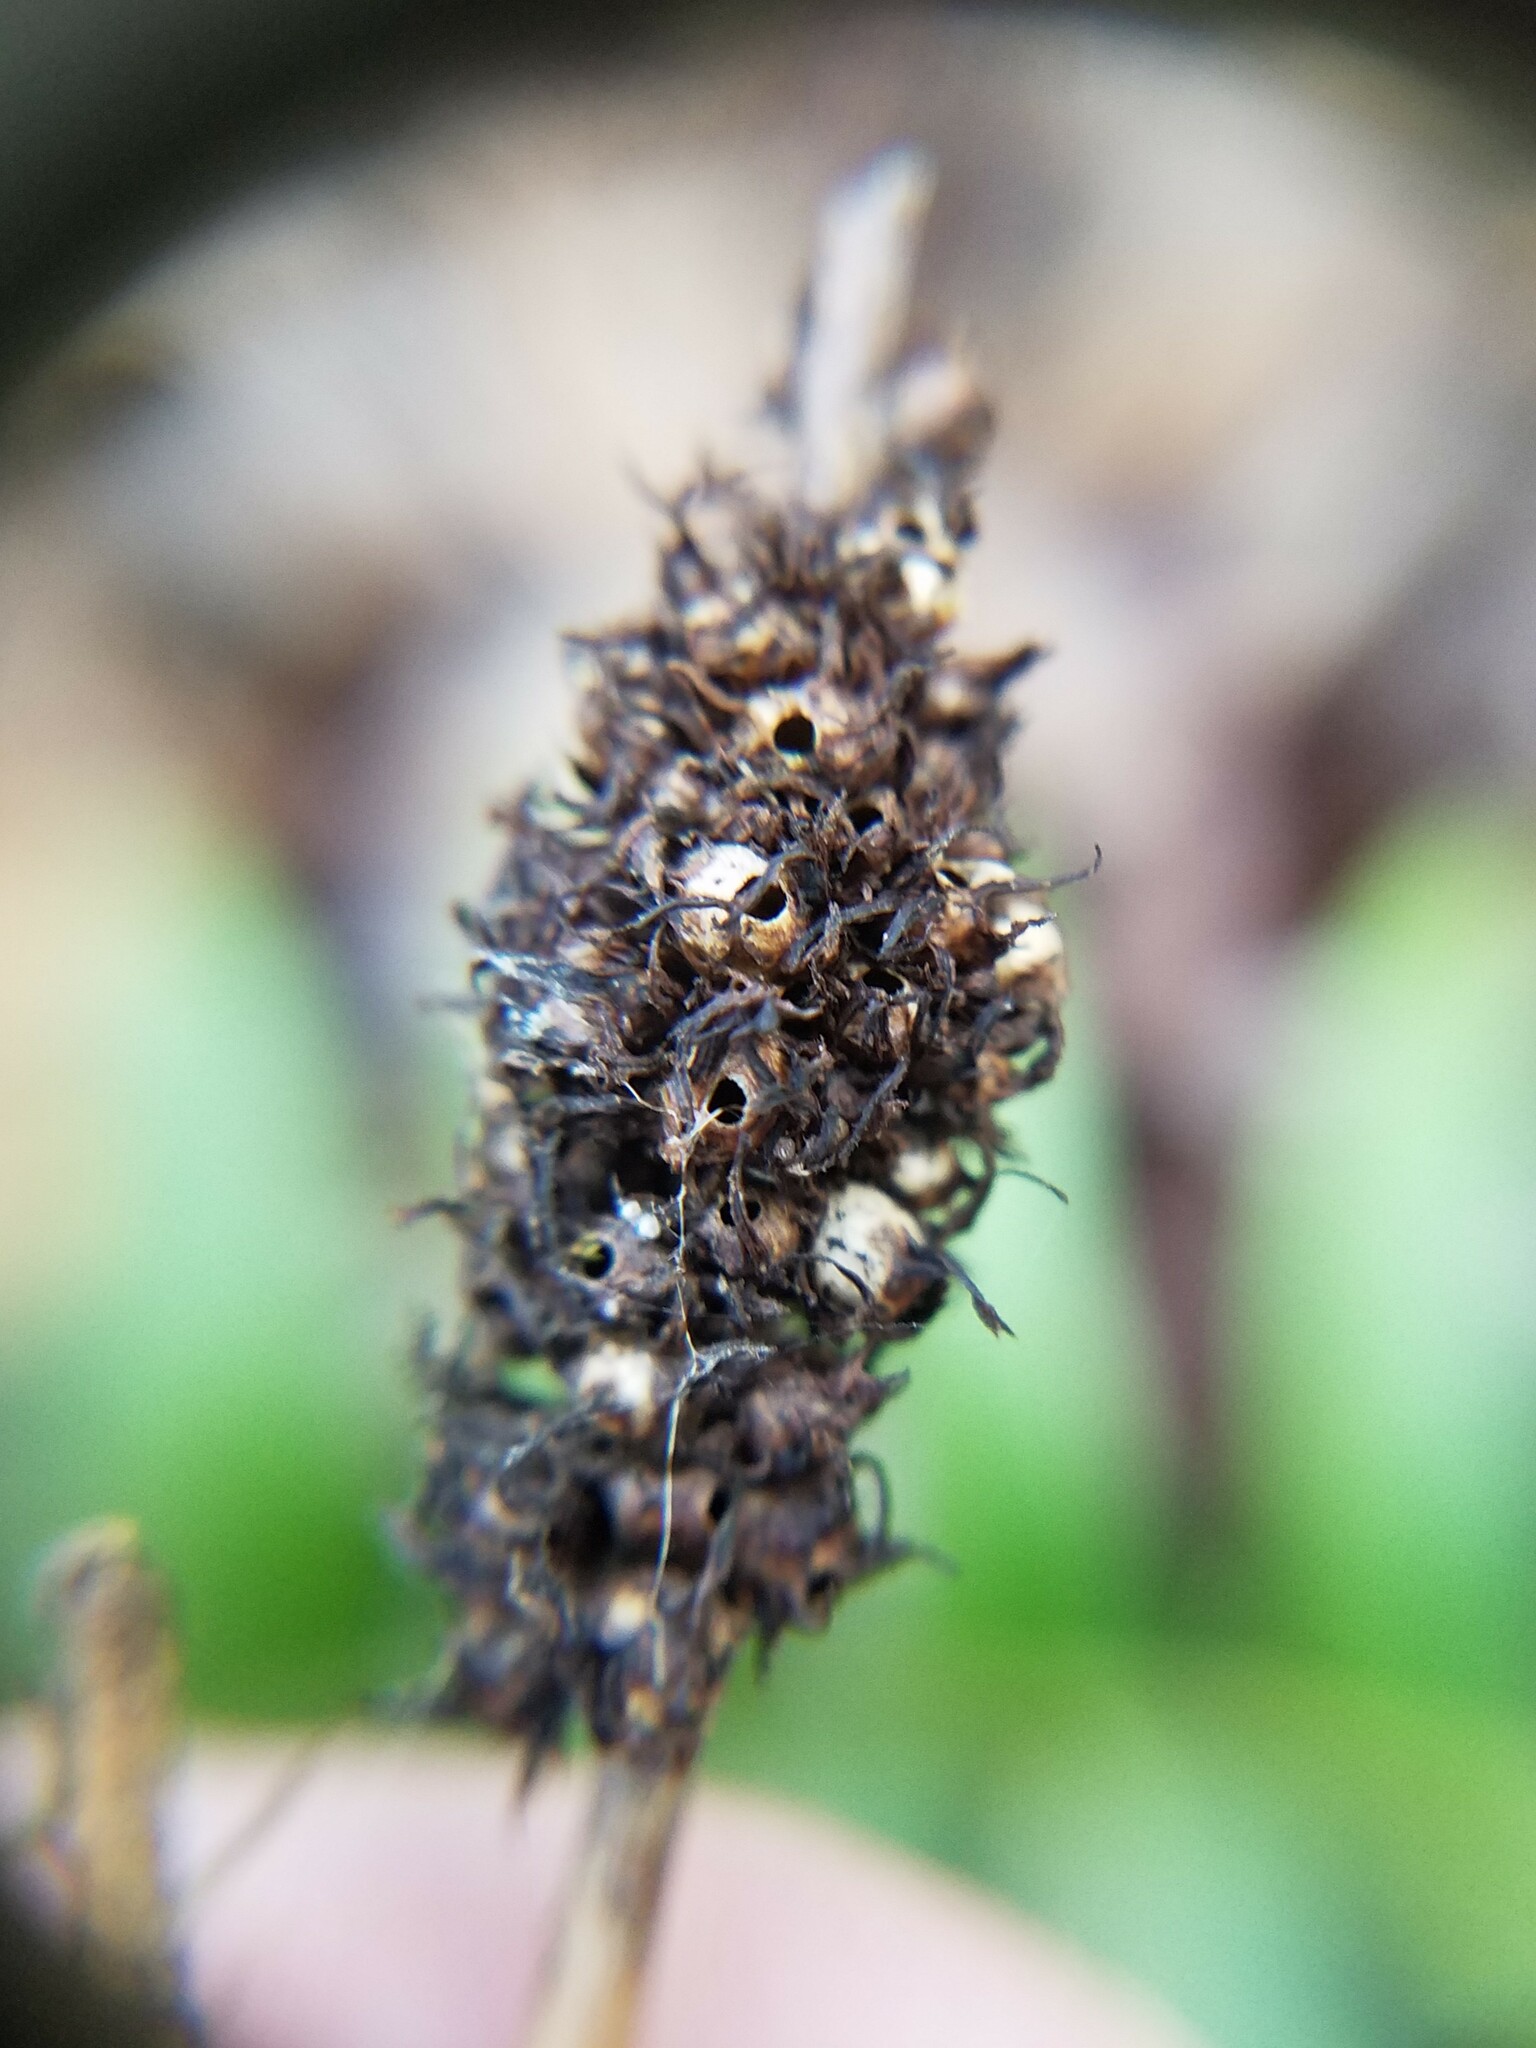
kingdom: Animalia
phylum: Arthropoda
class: Insecta
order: Hymenoptera
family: Cynipidae
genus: Diastrophus
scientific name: Diastrophus
